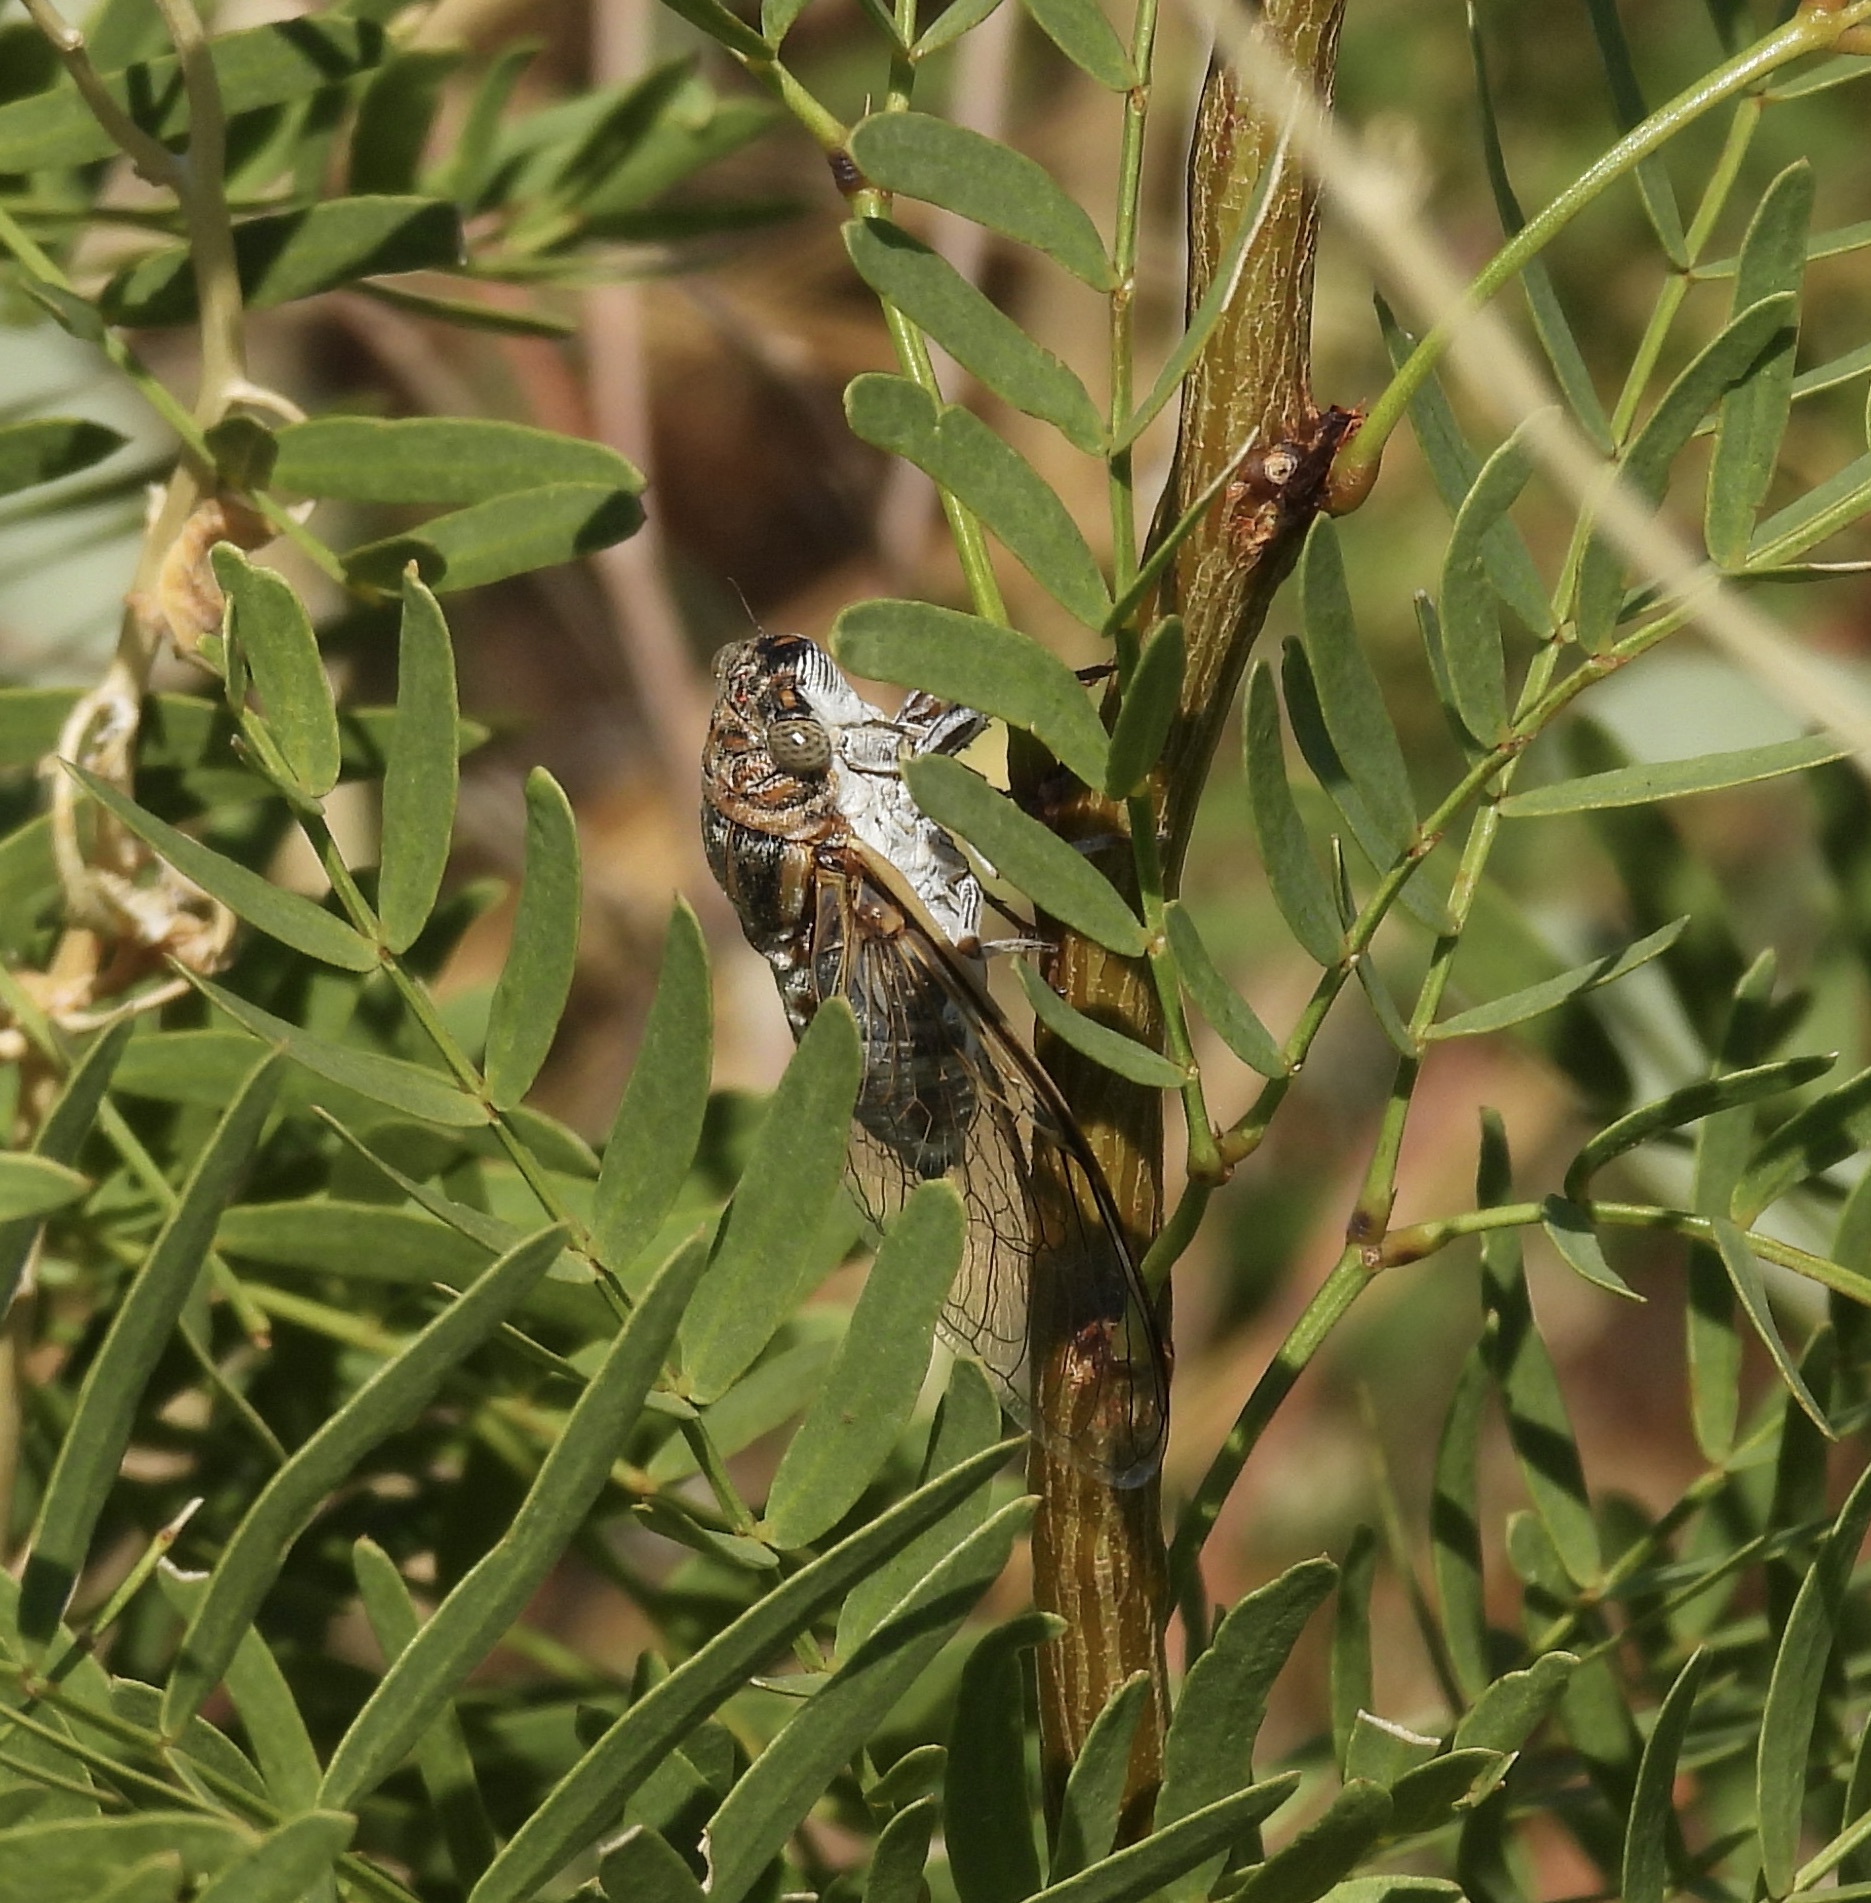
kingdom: Animalia
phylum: Arthropoda
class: Insecta
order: Hemiptera
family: Cicadidae
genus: Diceroprocta
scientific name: Diceroprocta eugraphica
